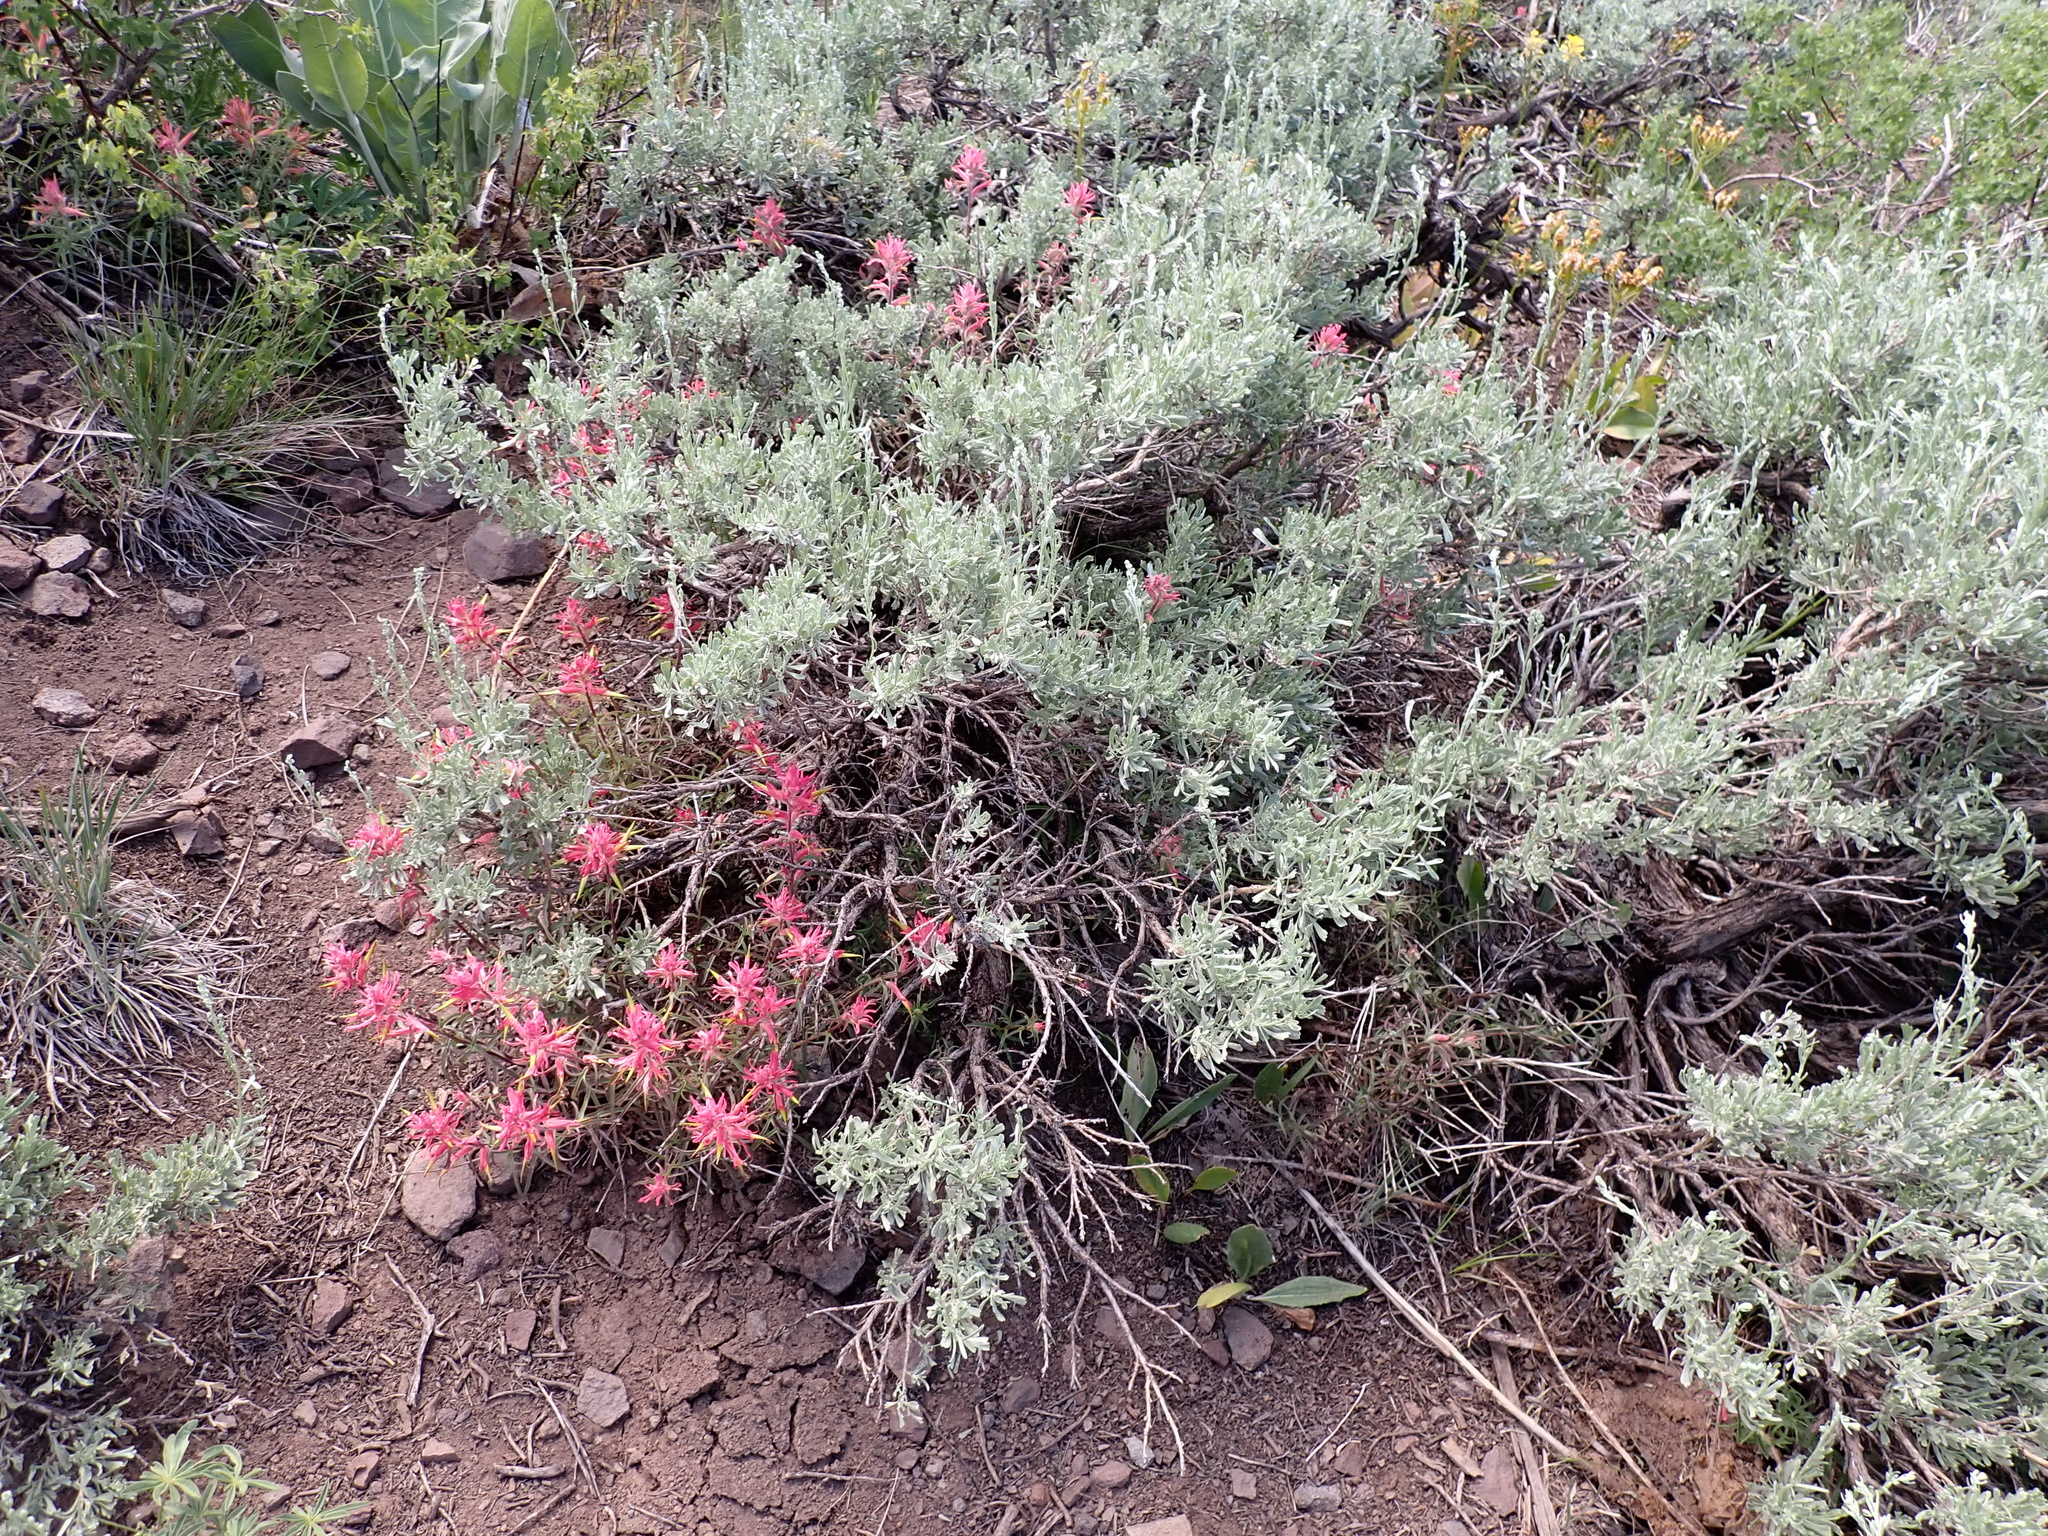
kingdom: Plantae
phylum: Tracheophyta
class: Magnoliopsida
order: Lamiales
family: Orobanchaceae
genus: Castilleja
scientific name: Castilleja linariifolia
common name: Wyoming paintbrush
